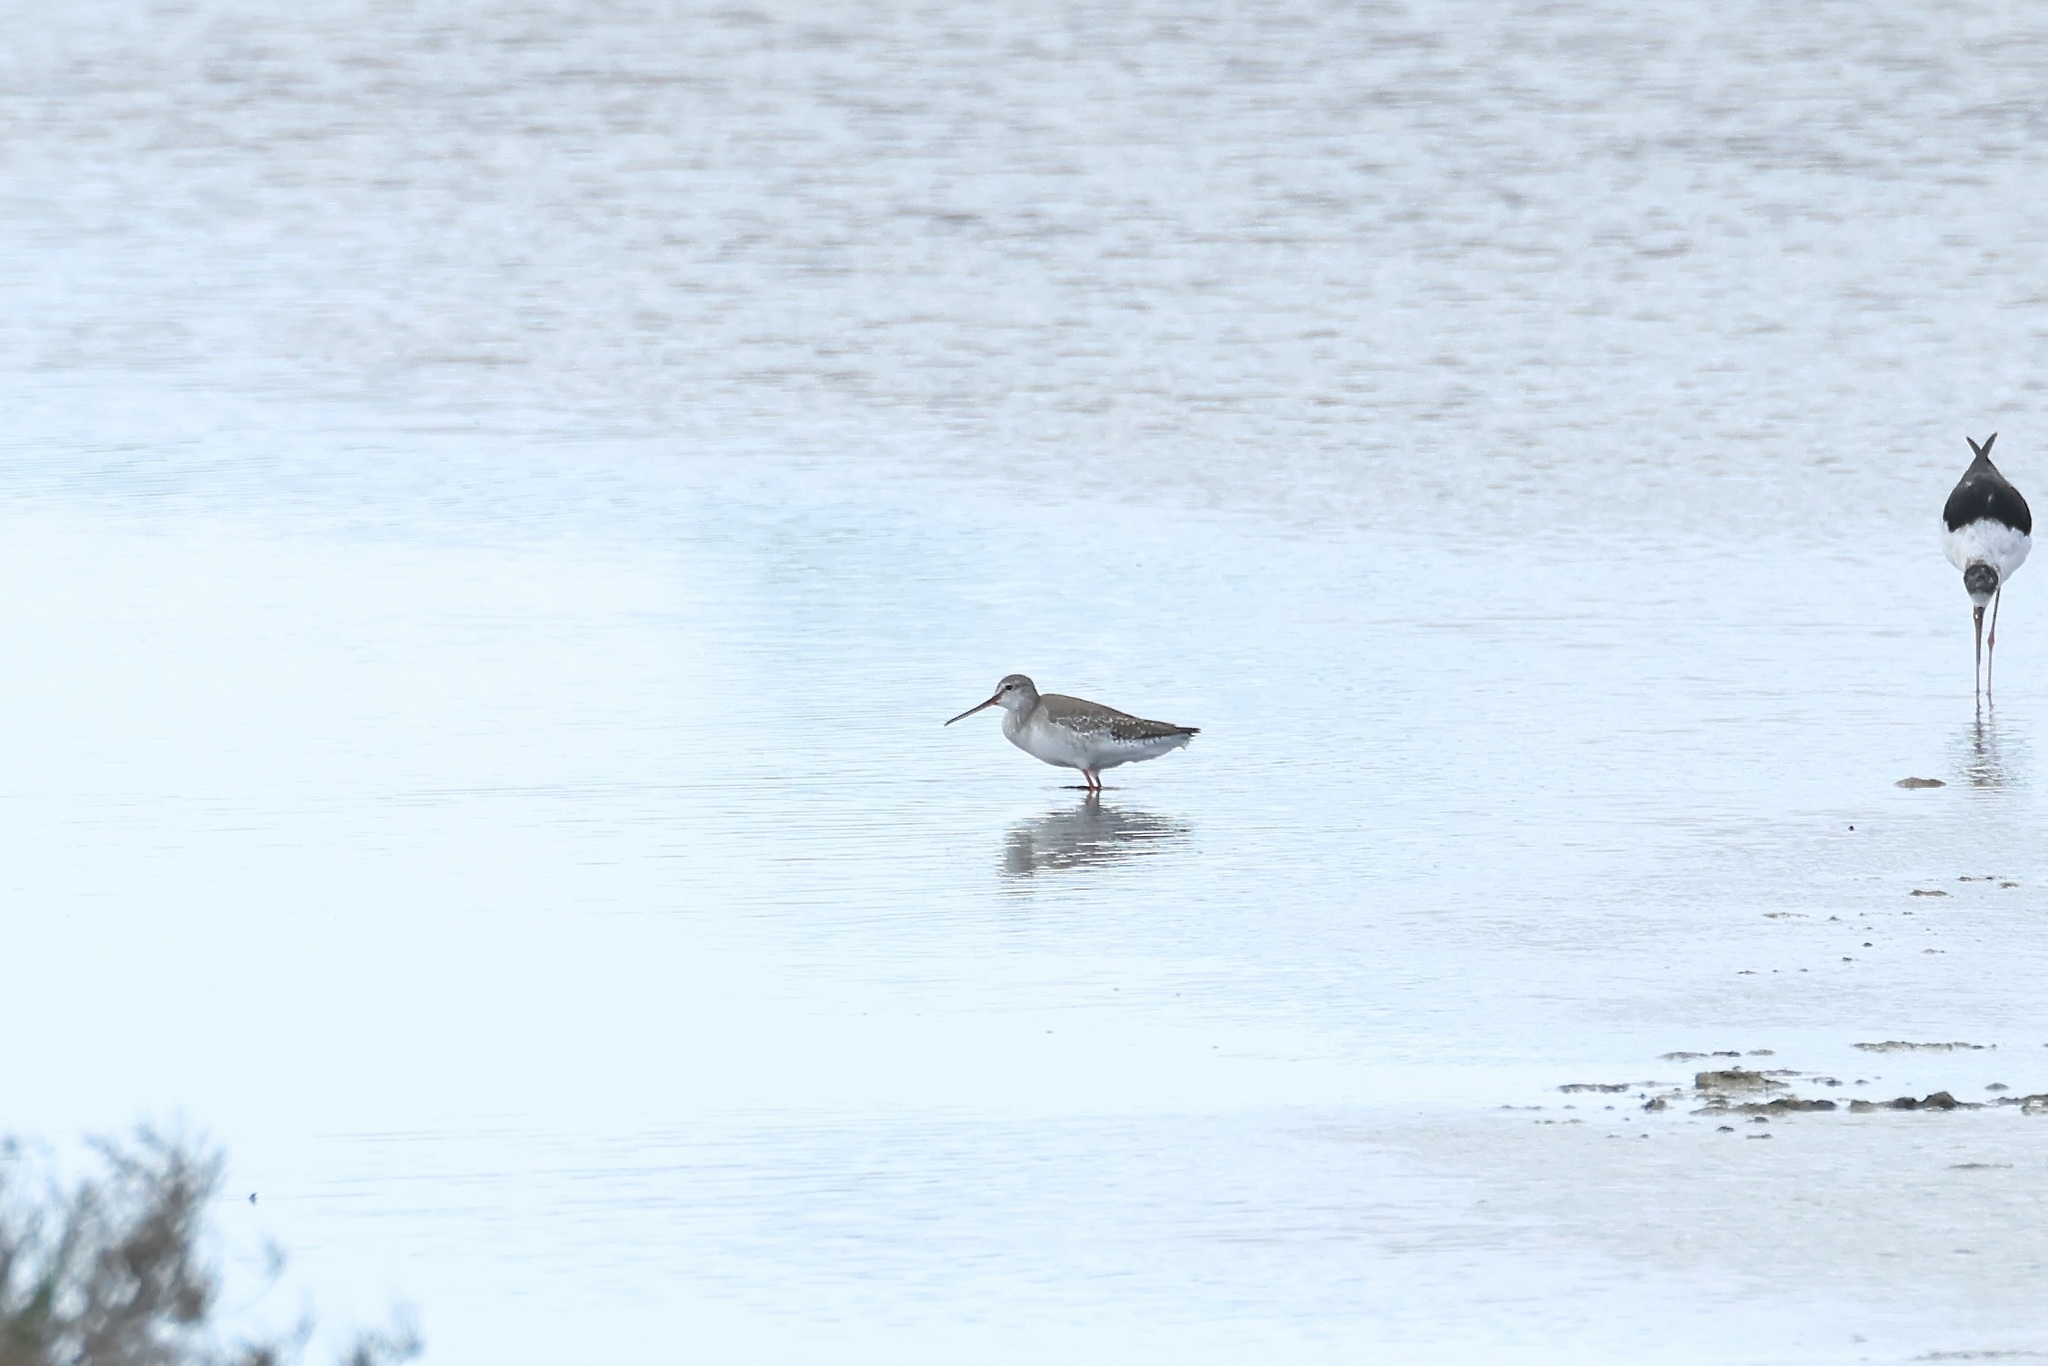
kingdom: Animalia
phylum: Chordata
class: Aves
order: Charadriiformes
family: Scolopacidae
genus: Tringa
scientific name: Tringa erythropus
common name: Spotted redshank
